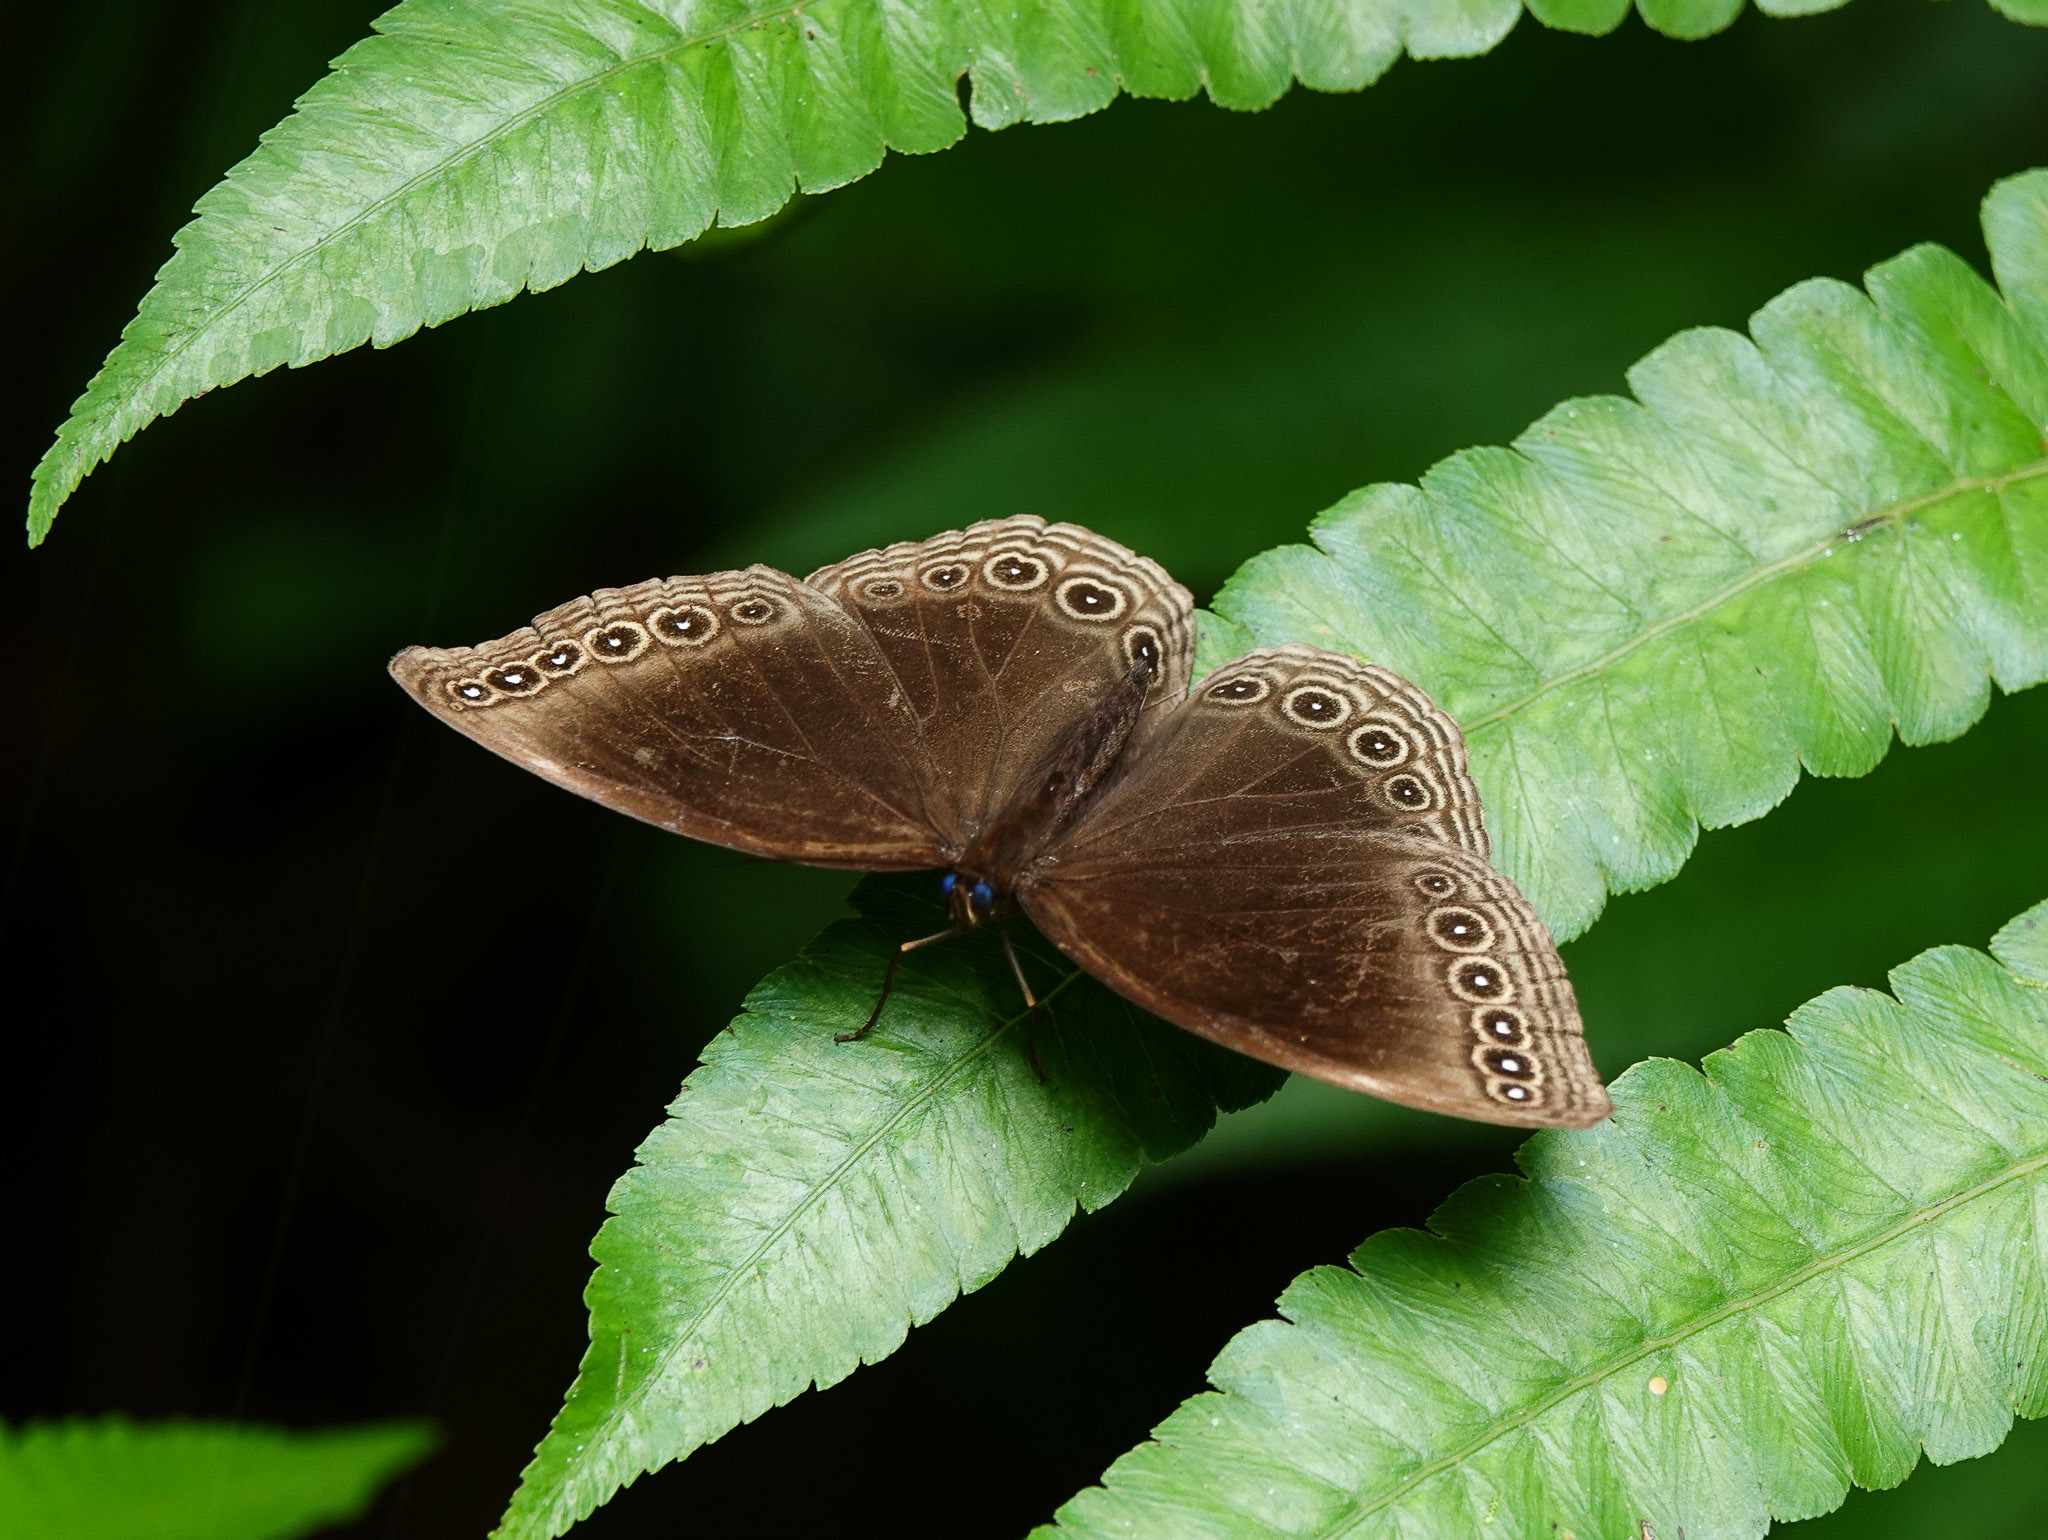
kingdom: Animalia
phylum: Arthropoda
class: Insecta
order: Lepidoptera
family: Nymphalidae
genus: Ethope
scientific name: Ethope himachala
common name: Dusky diadem
